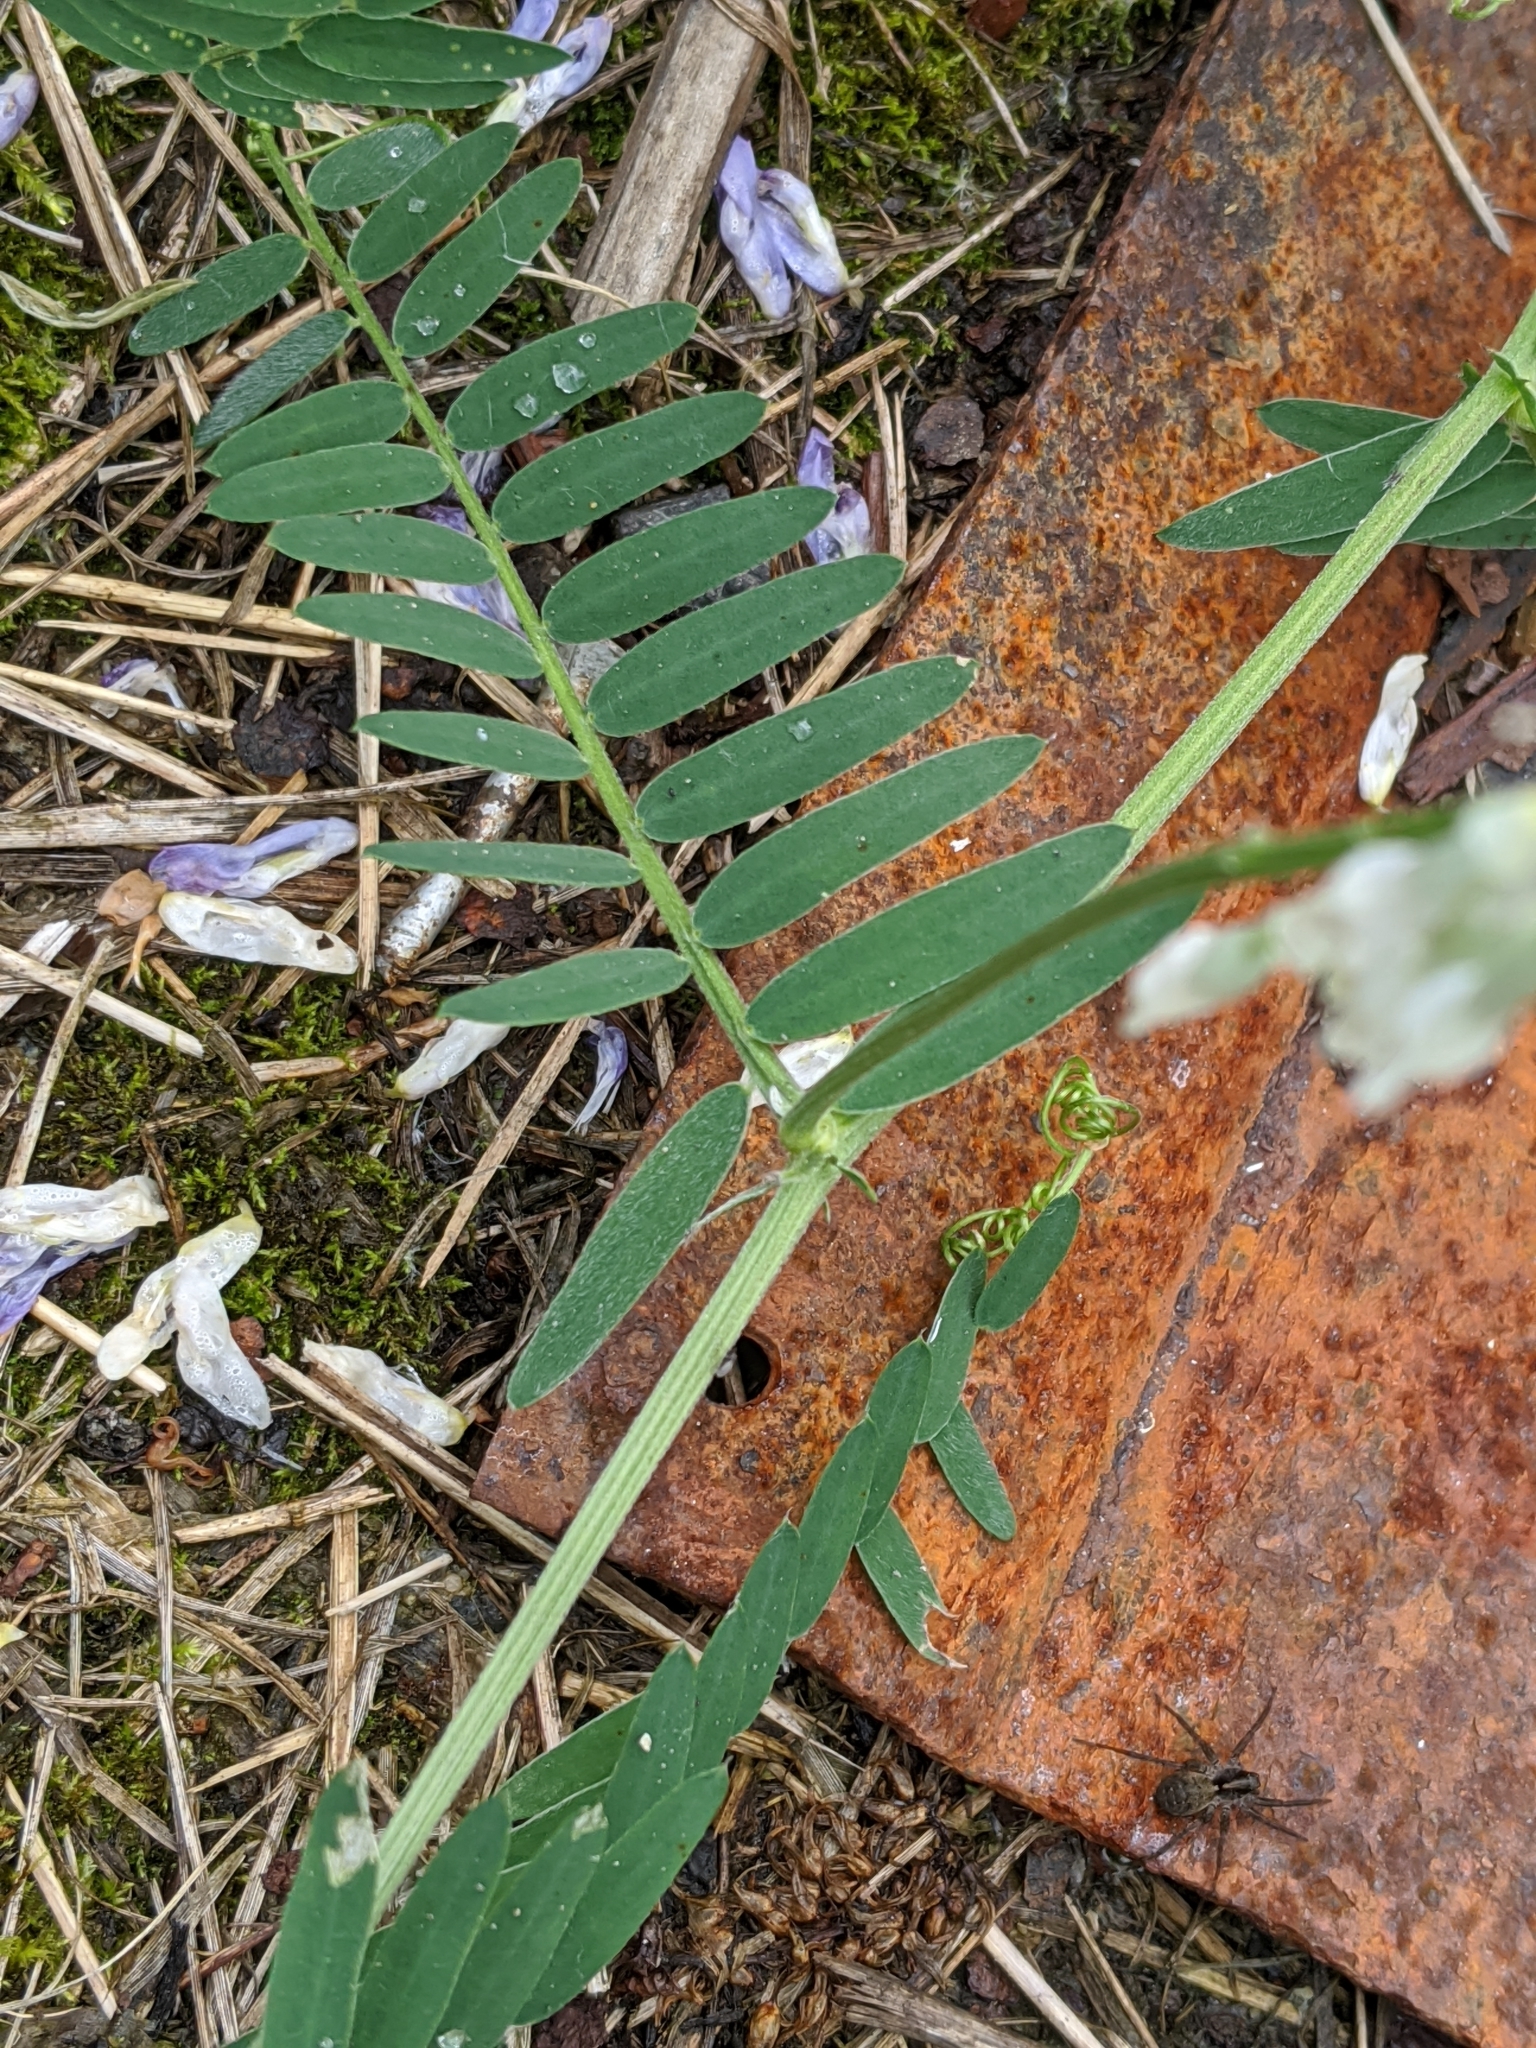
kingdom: Plantae
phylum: Tracheophyta
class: Magnoliopsida
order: Fabales
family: Fabaceae
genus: Vicia
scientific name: Vicia cracca
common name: Bird vetch
